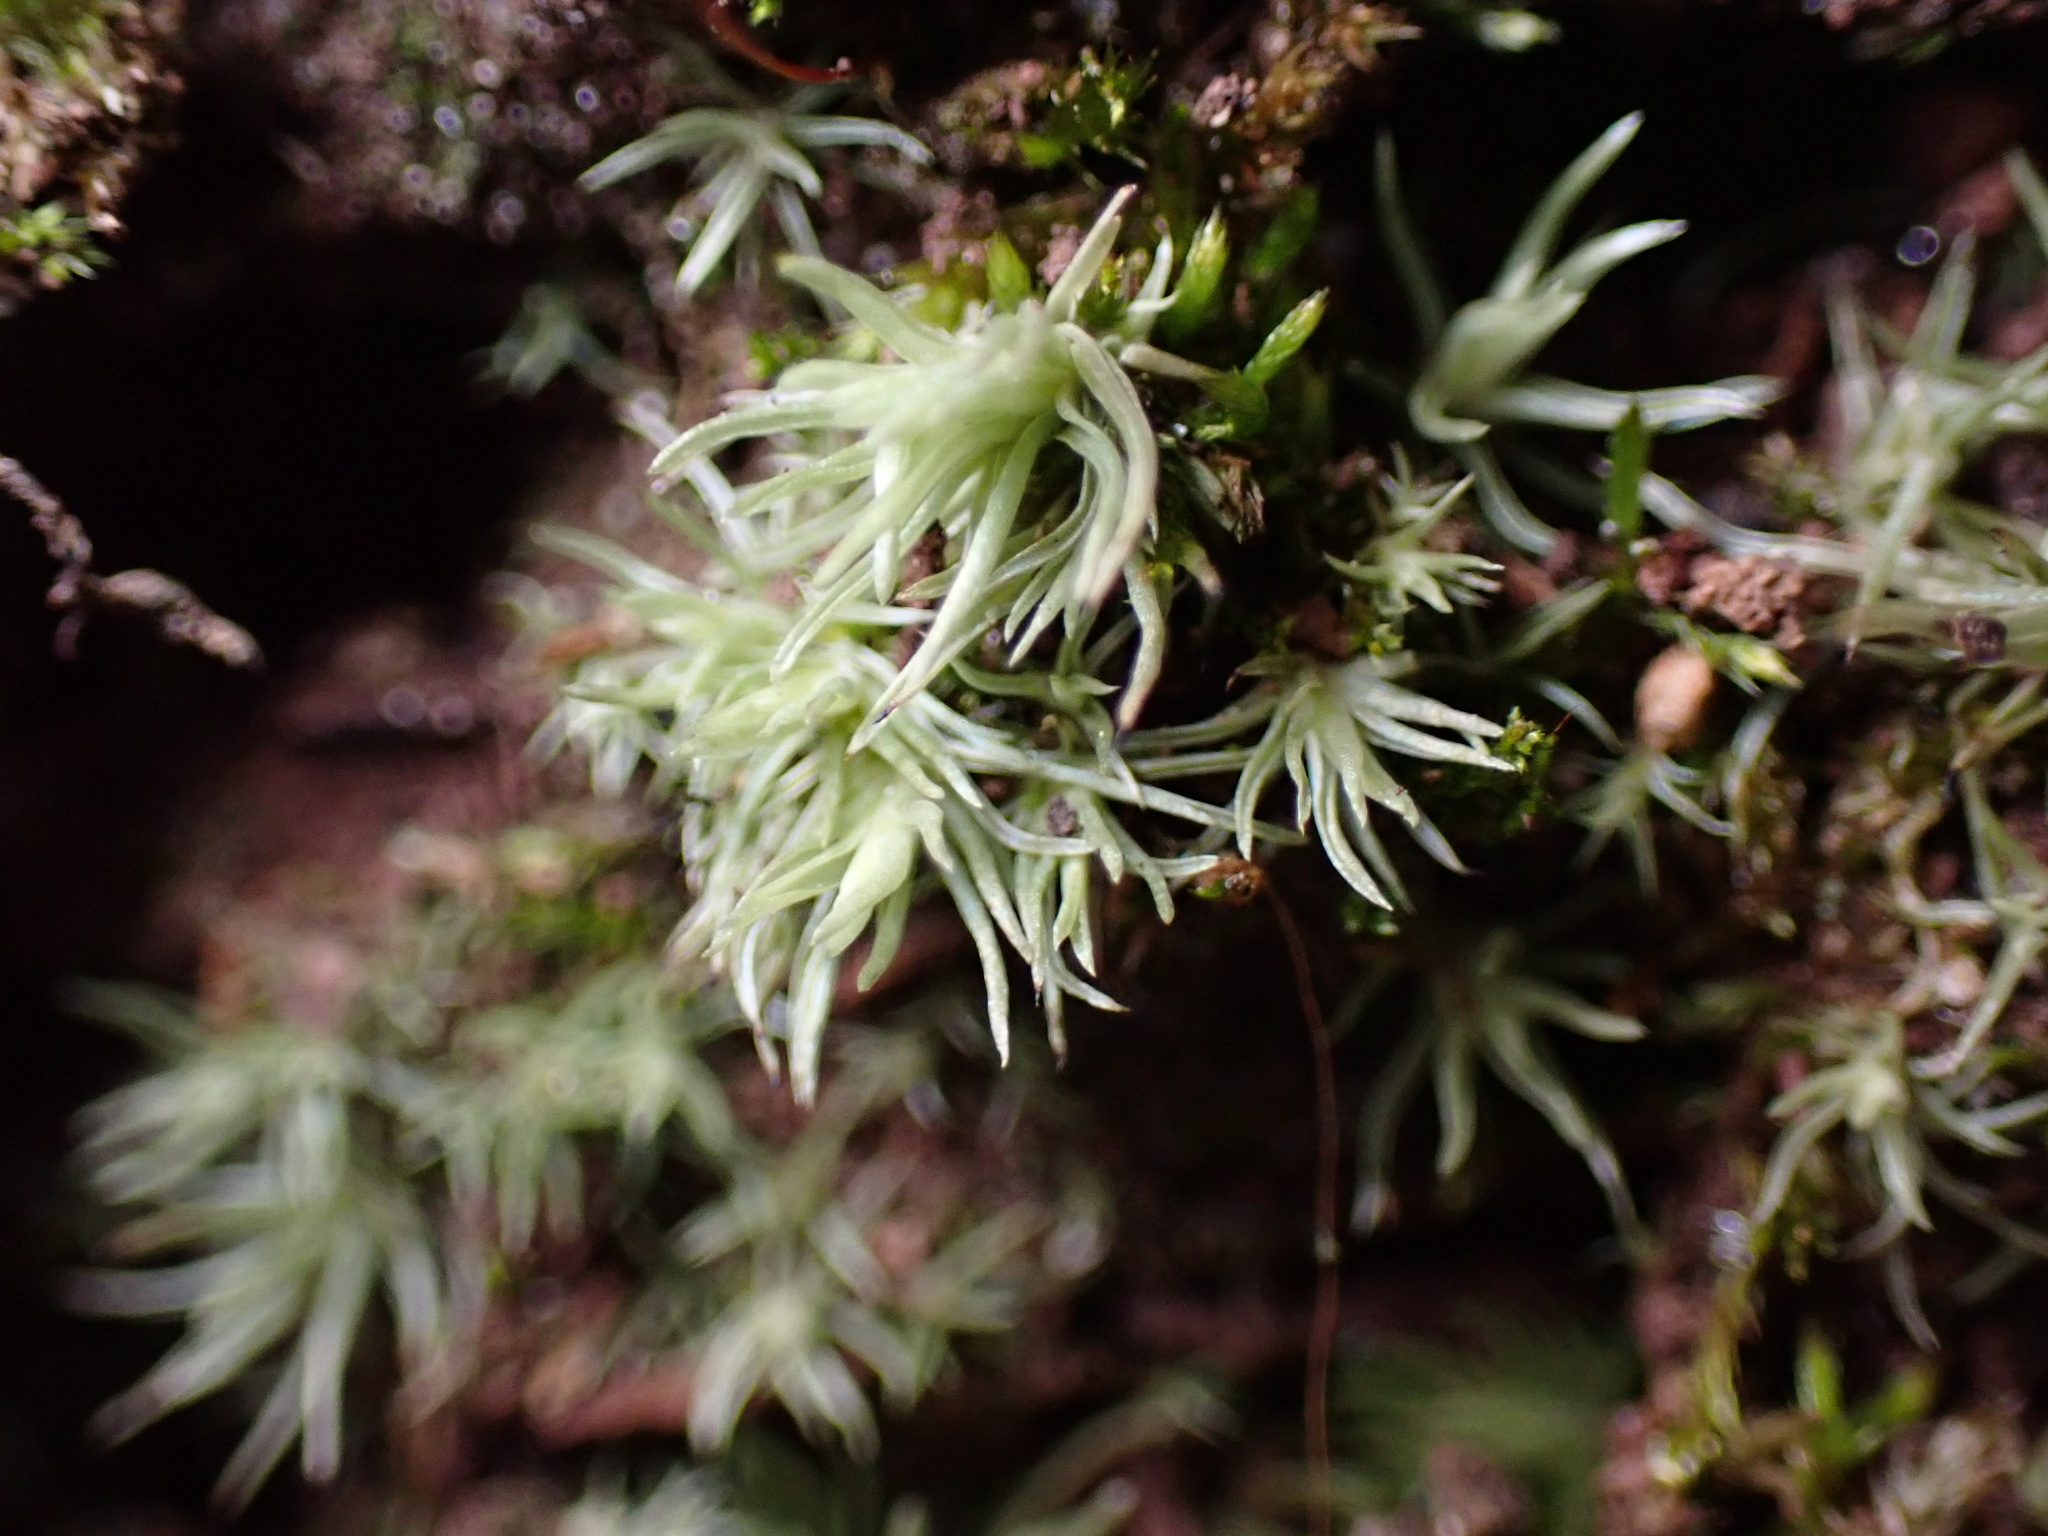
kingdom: Plantae
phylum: Bryophyta
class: Bryopsida
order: Dicranales
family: Leucobryaceae
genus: Leucobryum
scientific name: Leucobryum glaucum
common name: Large white-moss
